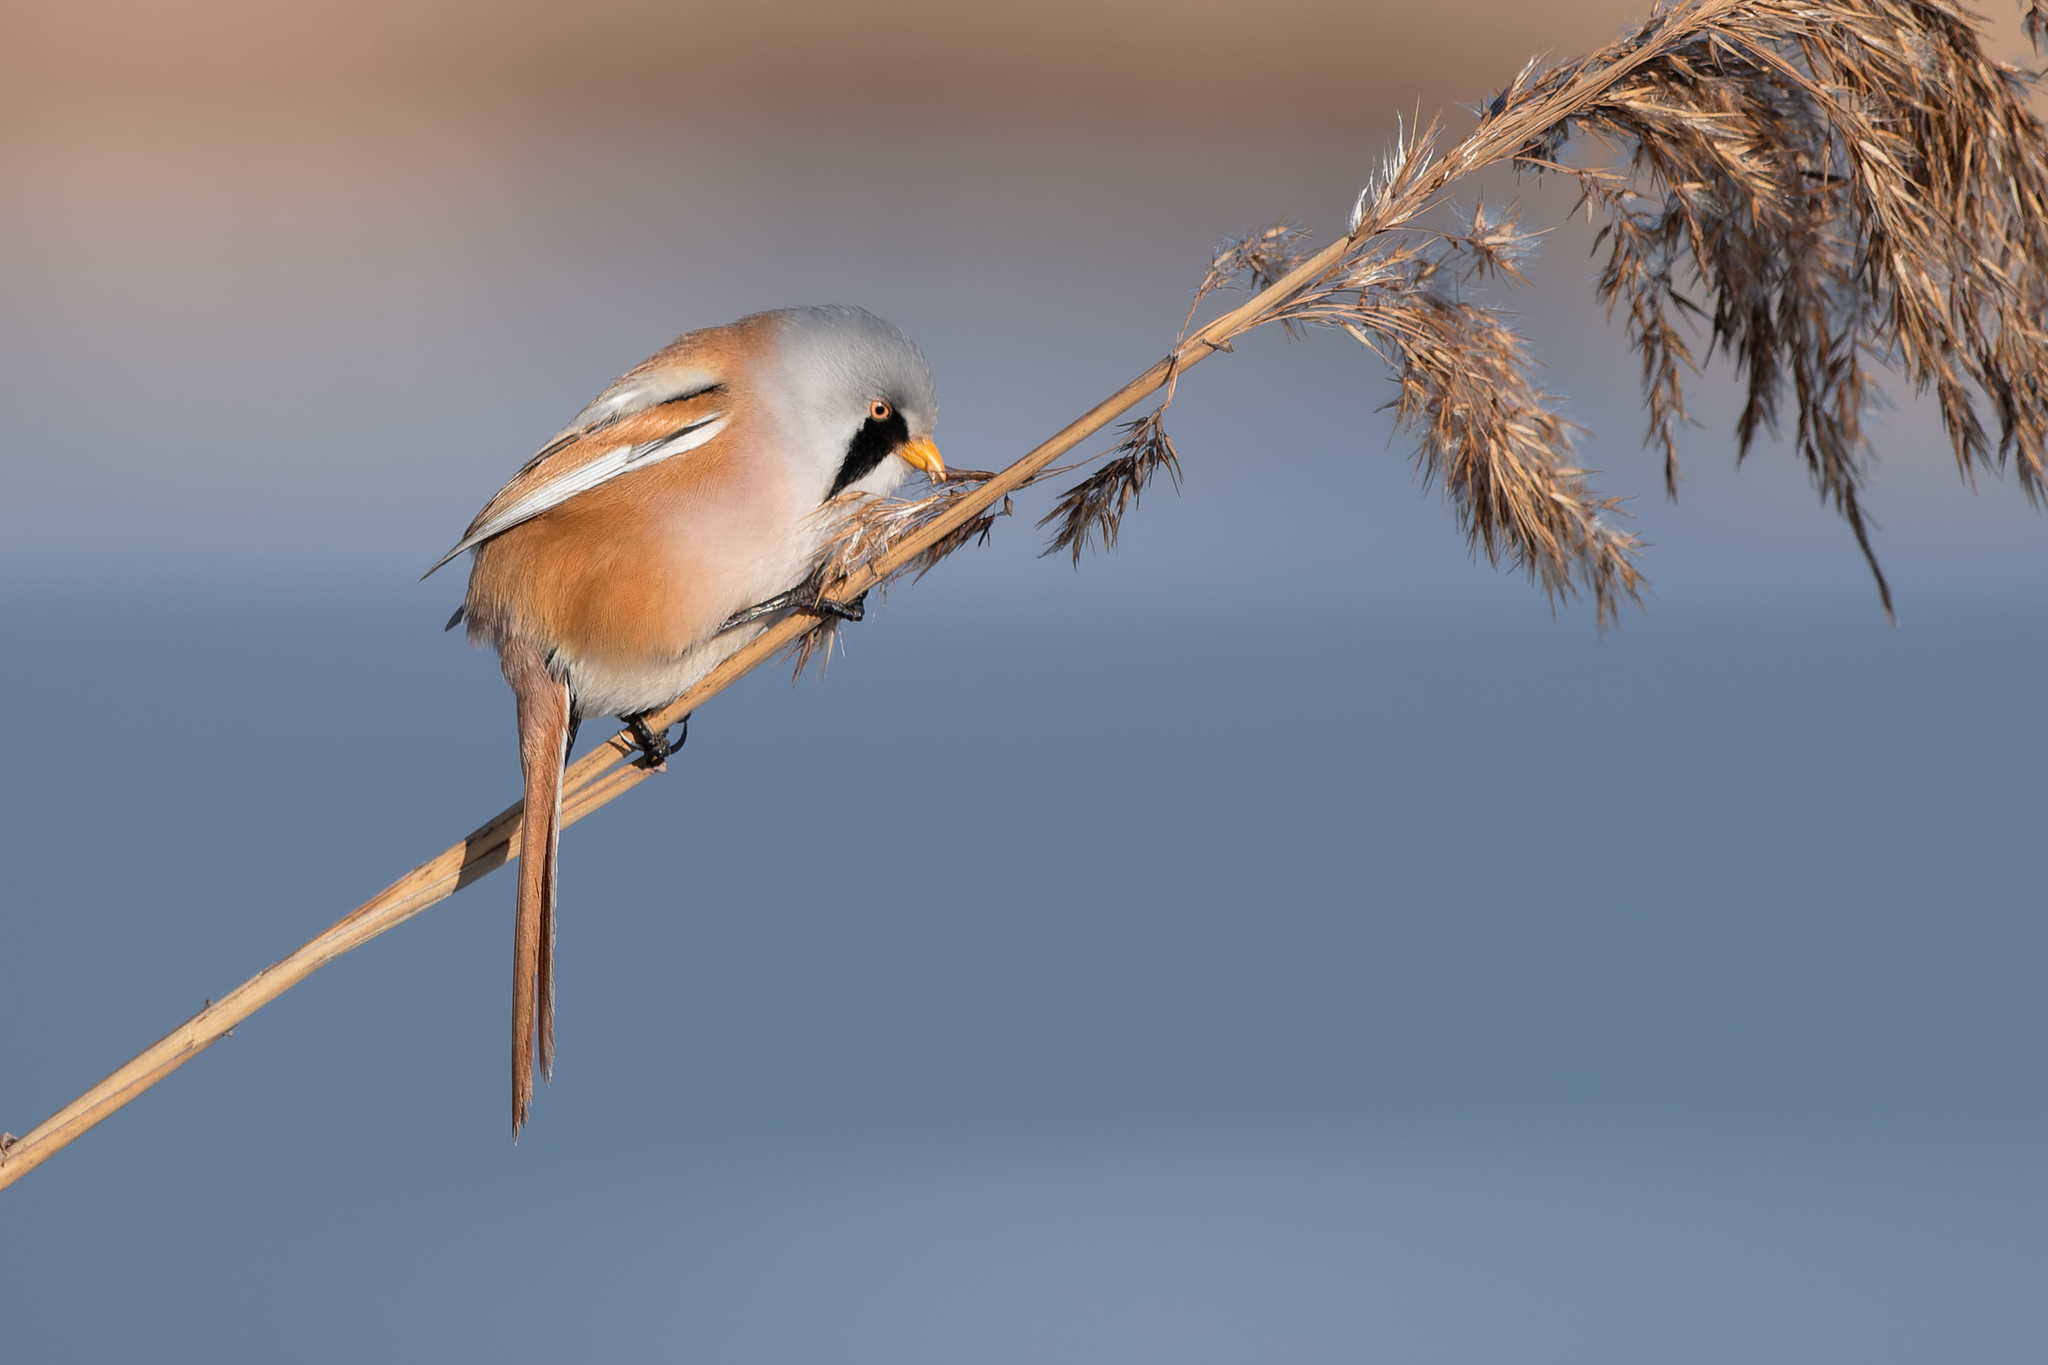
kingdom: Animalia
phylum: Chordata
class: Aves
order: Passeriformes
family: Panuridae
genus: Panurus
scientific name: Panurus biarmicus
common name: Bearded reedling
